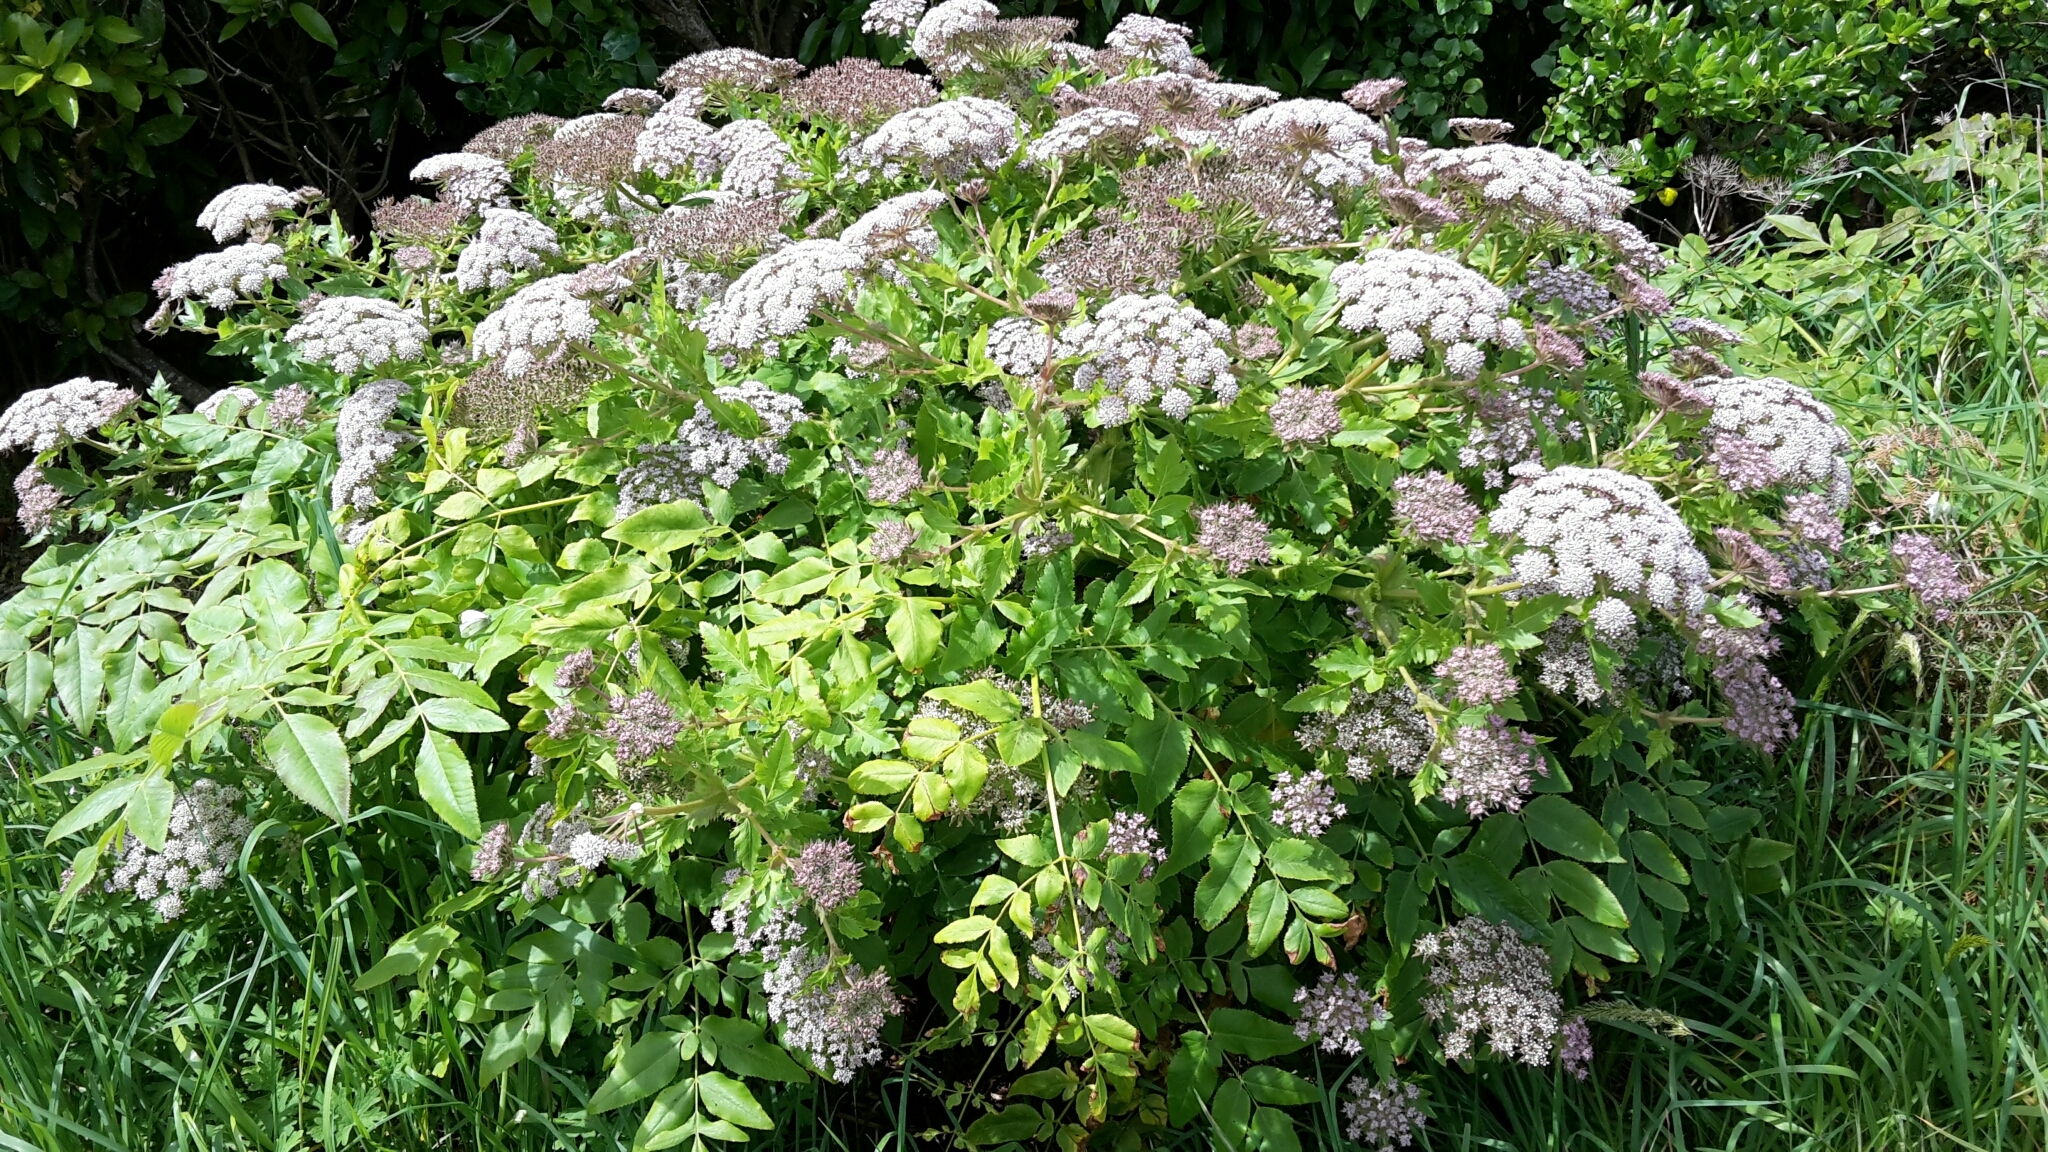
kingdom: Plantae
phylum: Tracheophyta
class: Magnoliopsida
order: Apiales
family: Apiaceae
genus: Daucus
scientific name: Daucus decipiens
